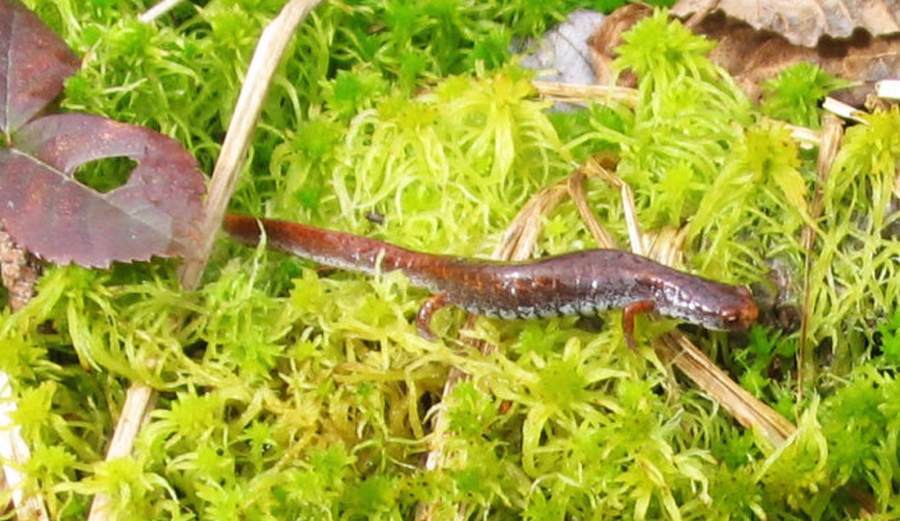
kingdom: Animalia
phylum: Chordata
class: Amphibia
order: Caudata
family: Plethodontidae
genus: Hemidactylium
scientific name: Hemidactylium scutatum
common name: Four-toed salamander
